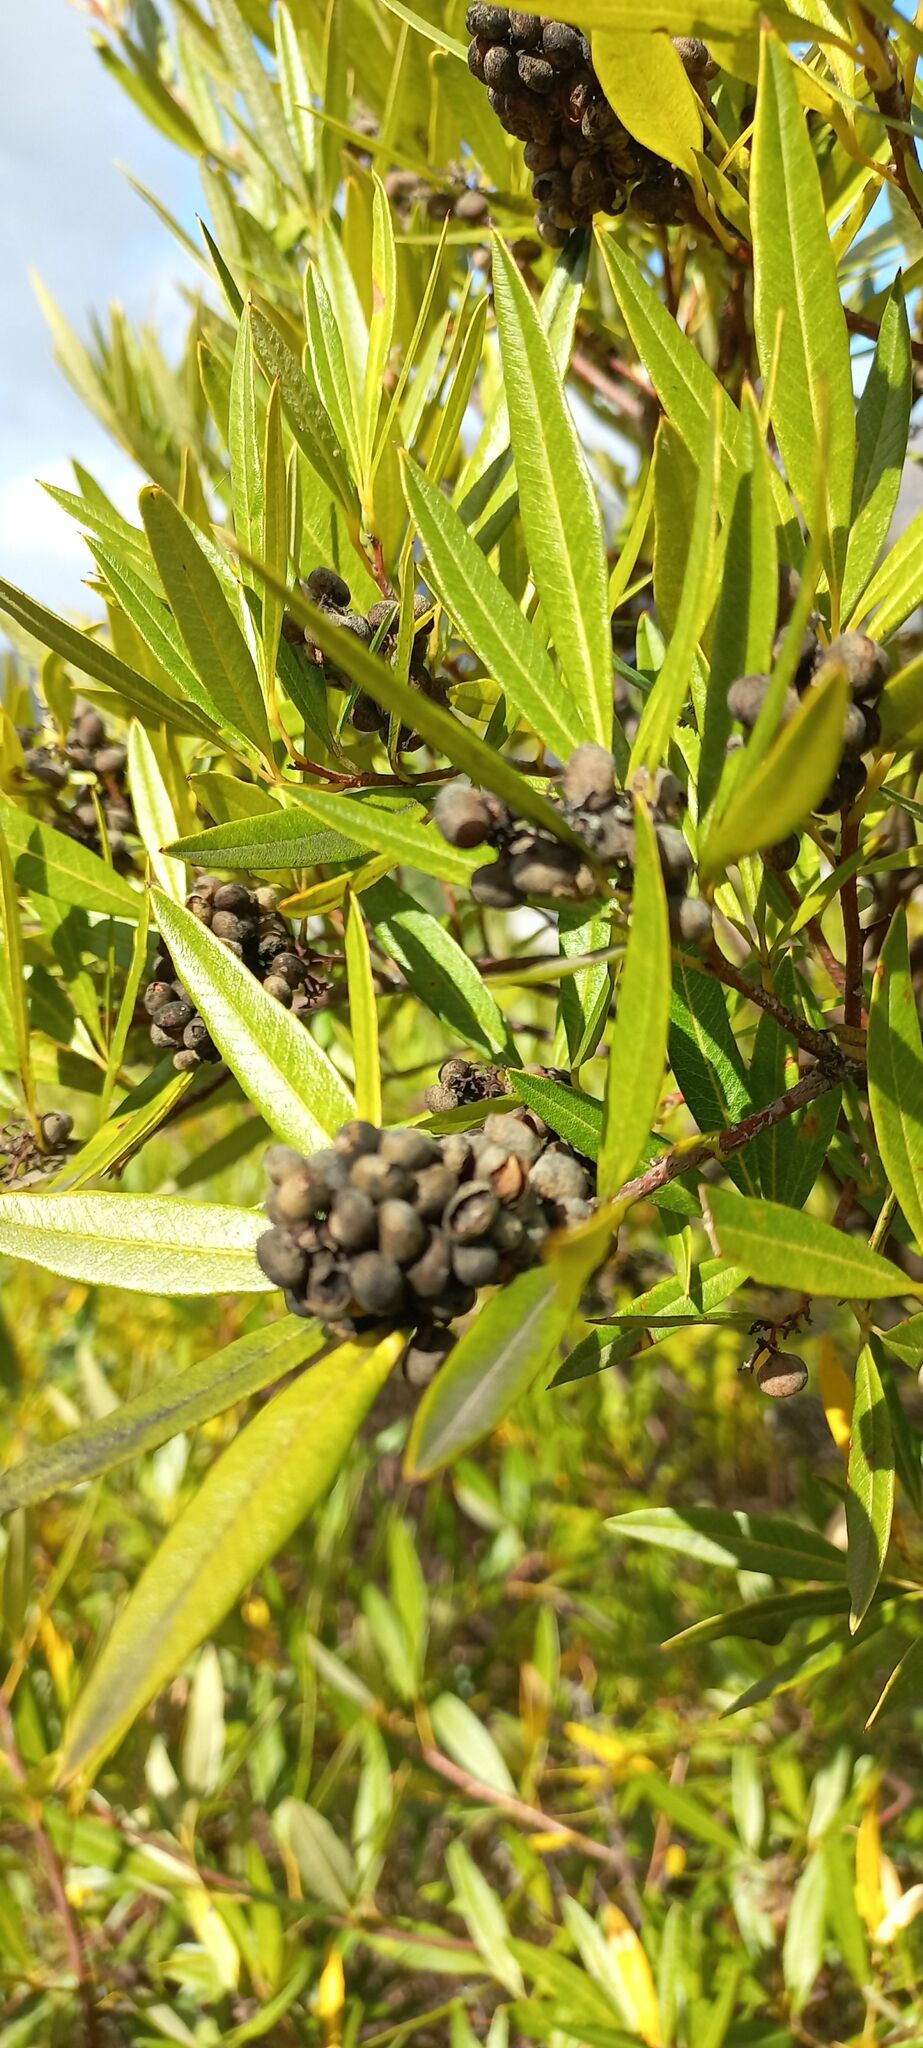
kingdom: Plantae
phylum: Tracheophyta
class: Magnoliopsida
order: Sapindales
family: Anacardiaceae
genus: Searsia
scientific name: Searsia angustifolia
